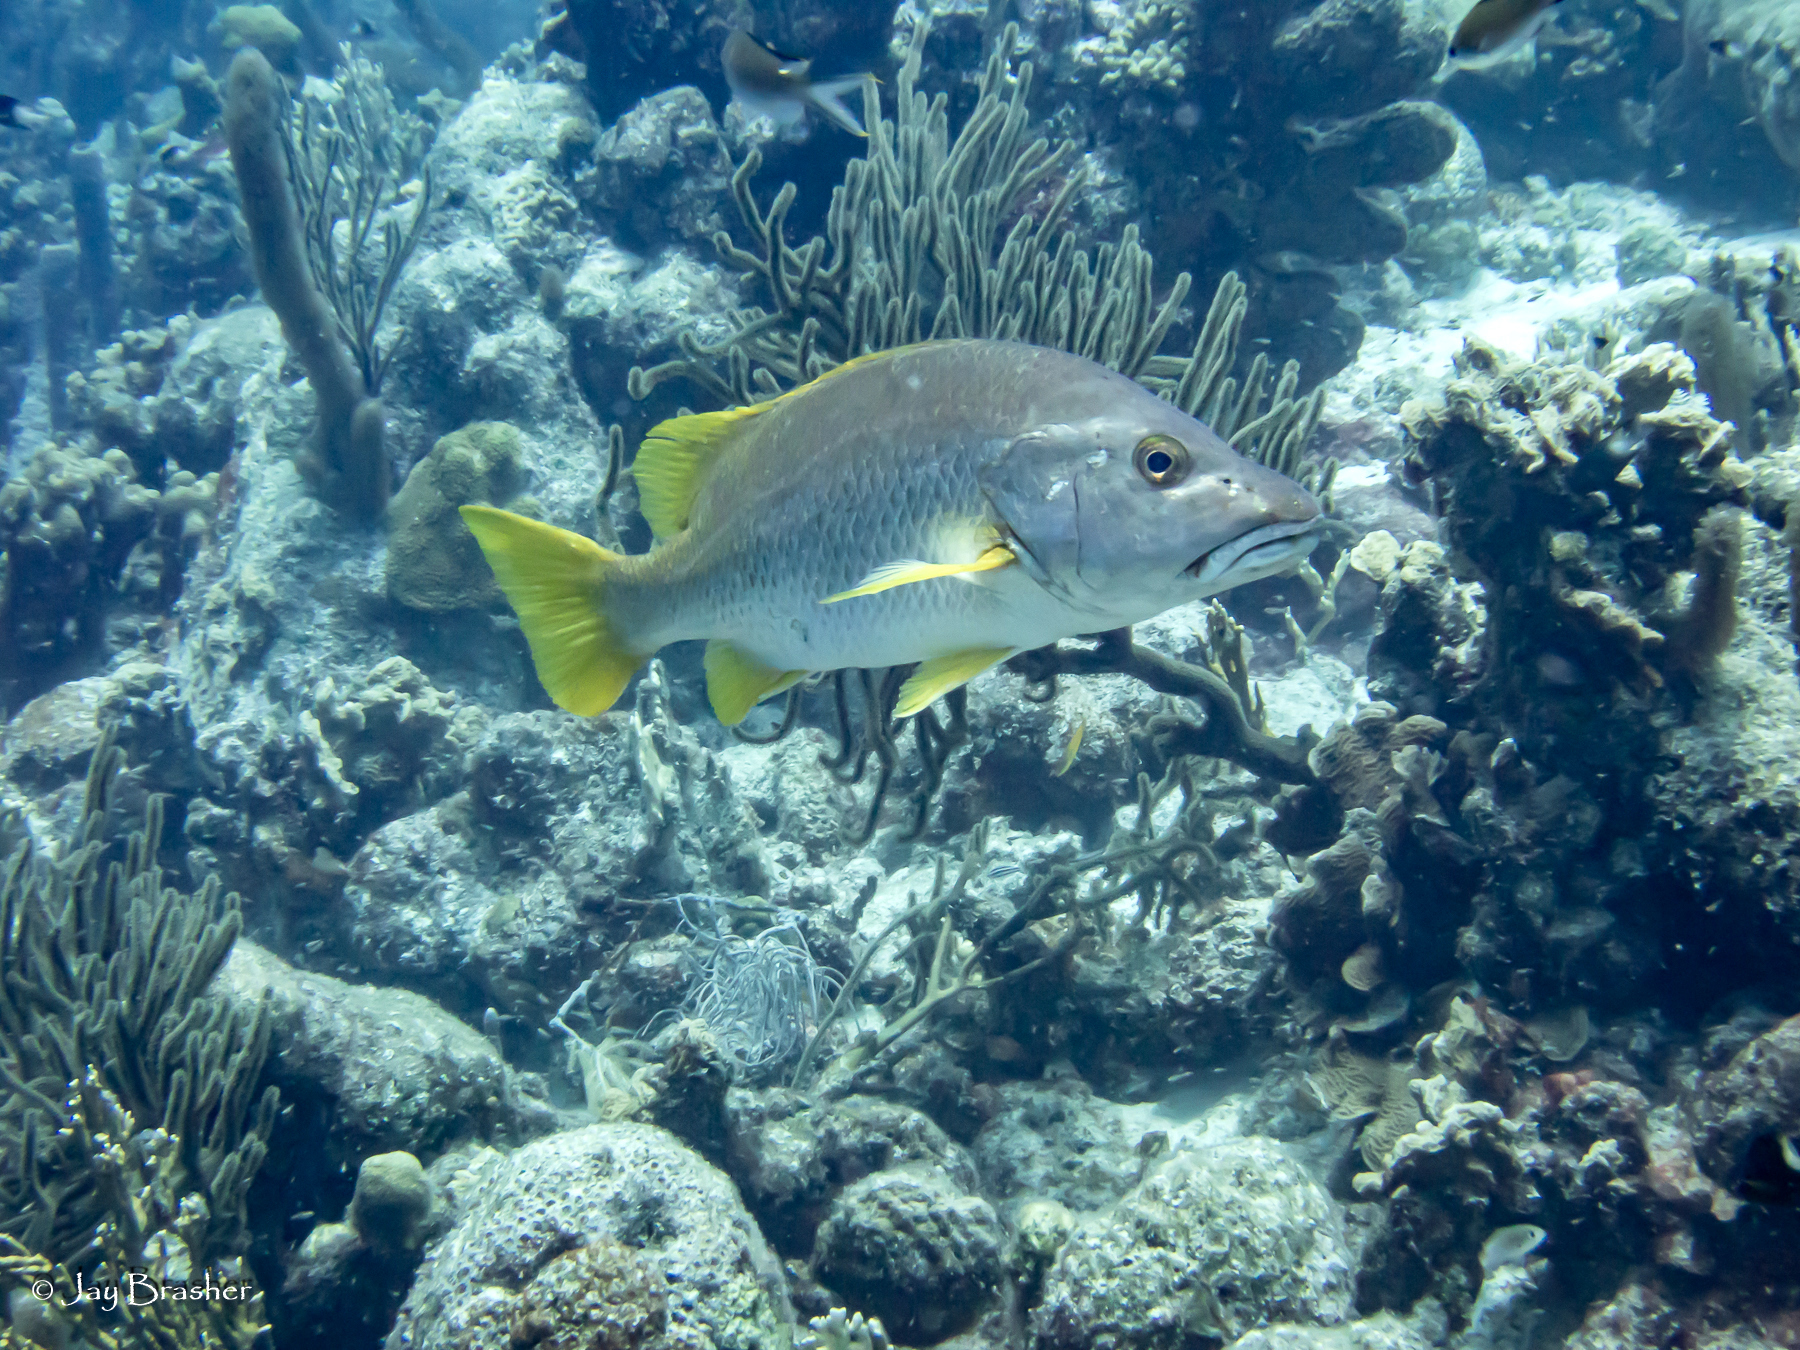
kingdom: Animalia
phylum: Chordata
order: Perciformes
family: Lutjanidae
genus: Lutjanus
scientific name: Lutjanus apodus
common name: Schoolmaster
